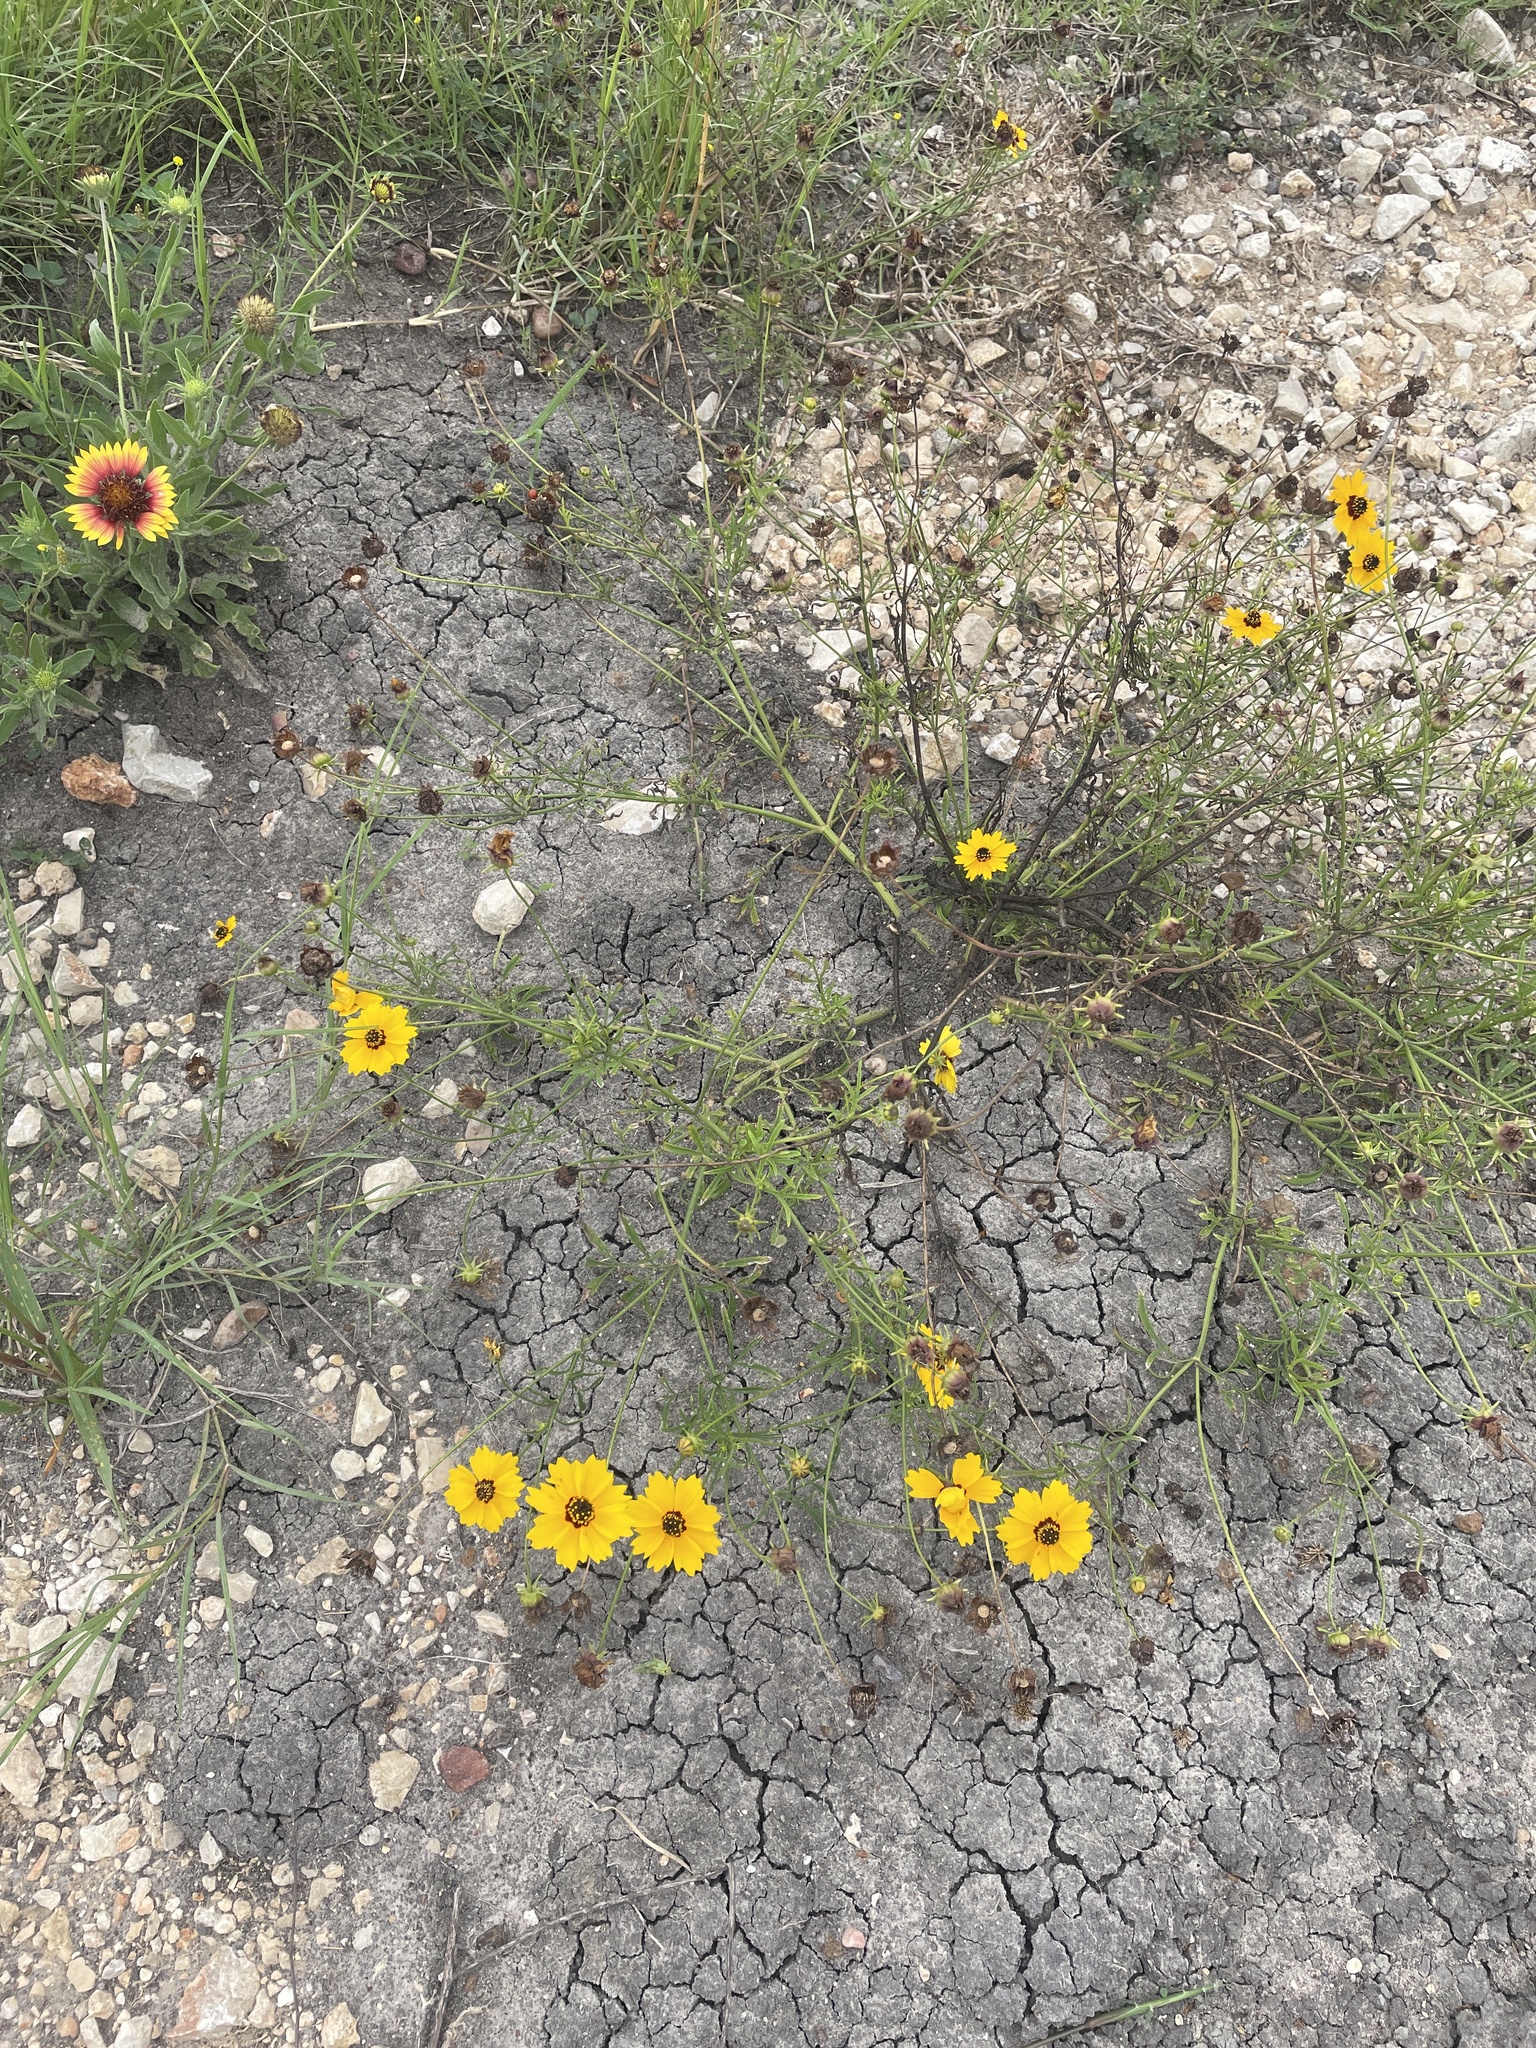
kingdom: Plantae
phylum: Tracheophyta
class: Magnoliopsida
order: Asterales
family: Asteraceae
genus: Coreopsis
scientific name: Coreopsis basalis
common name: Golden-mane coreopsis
